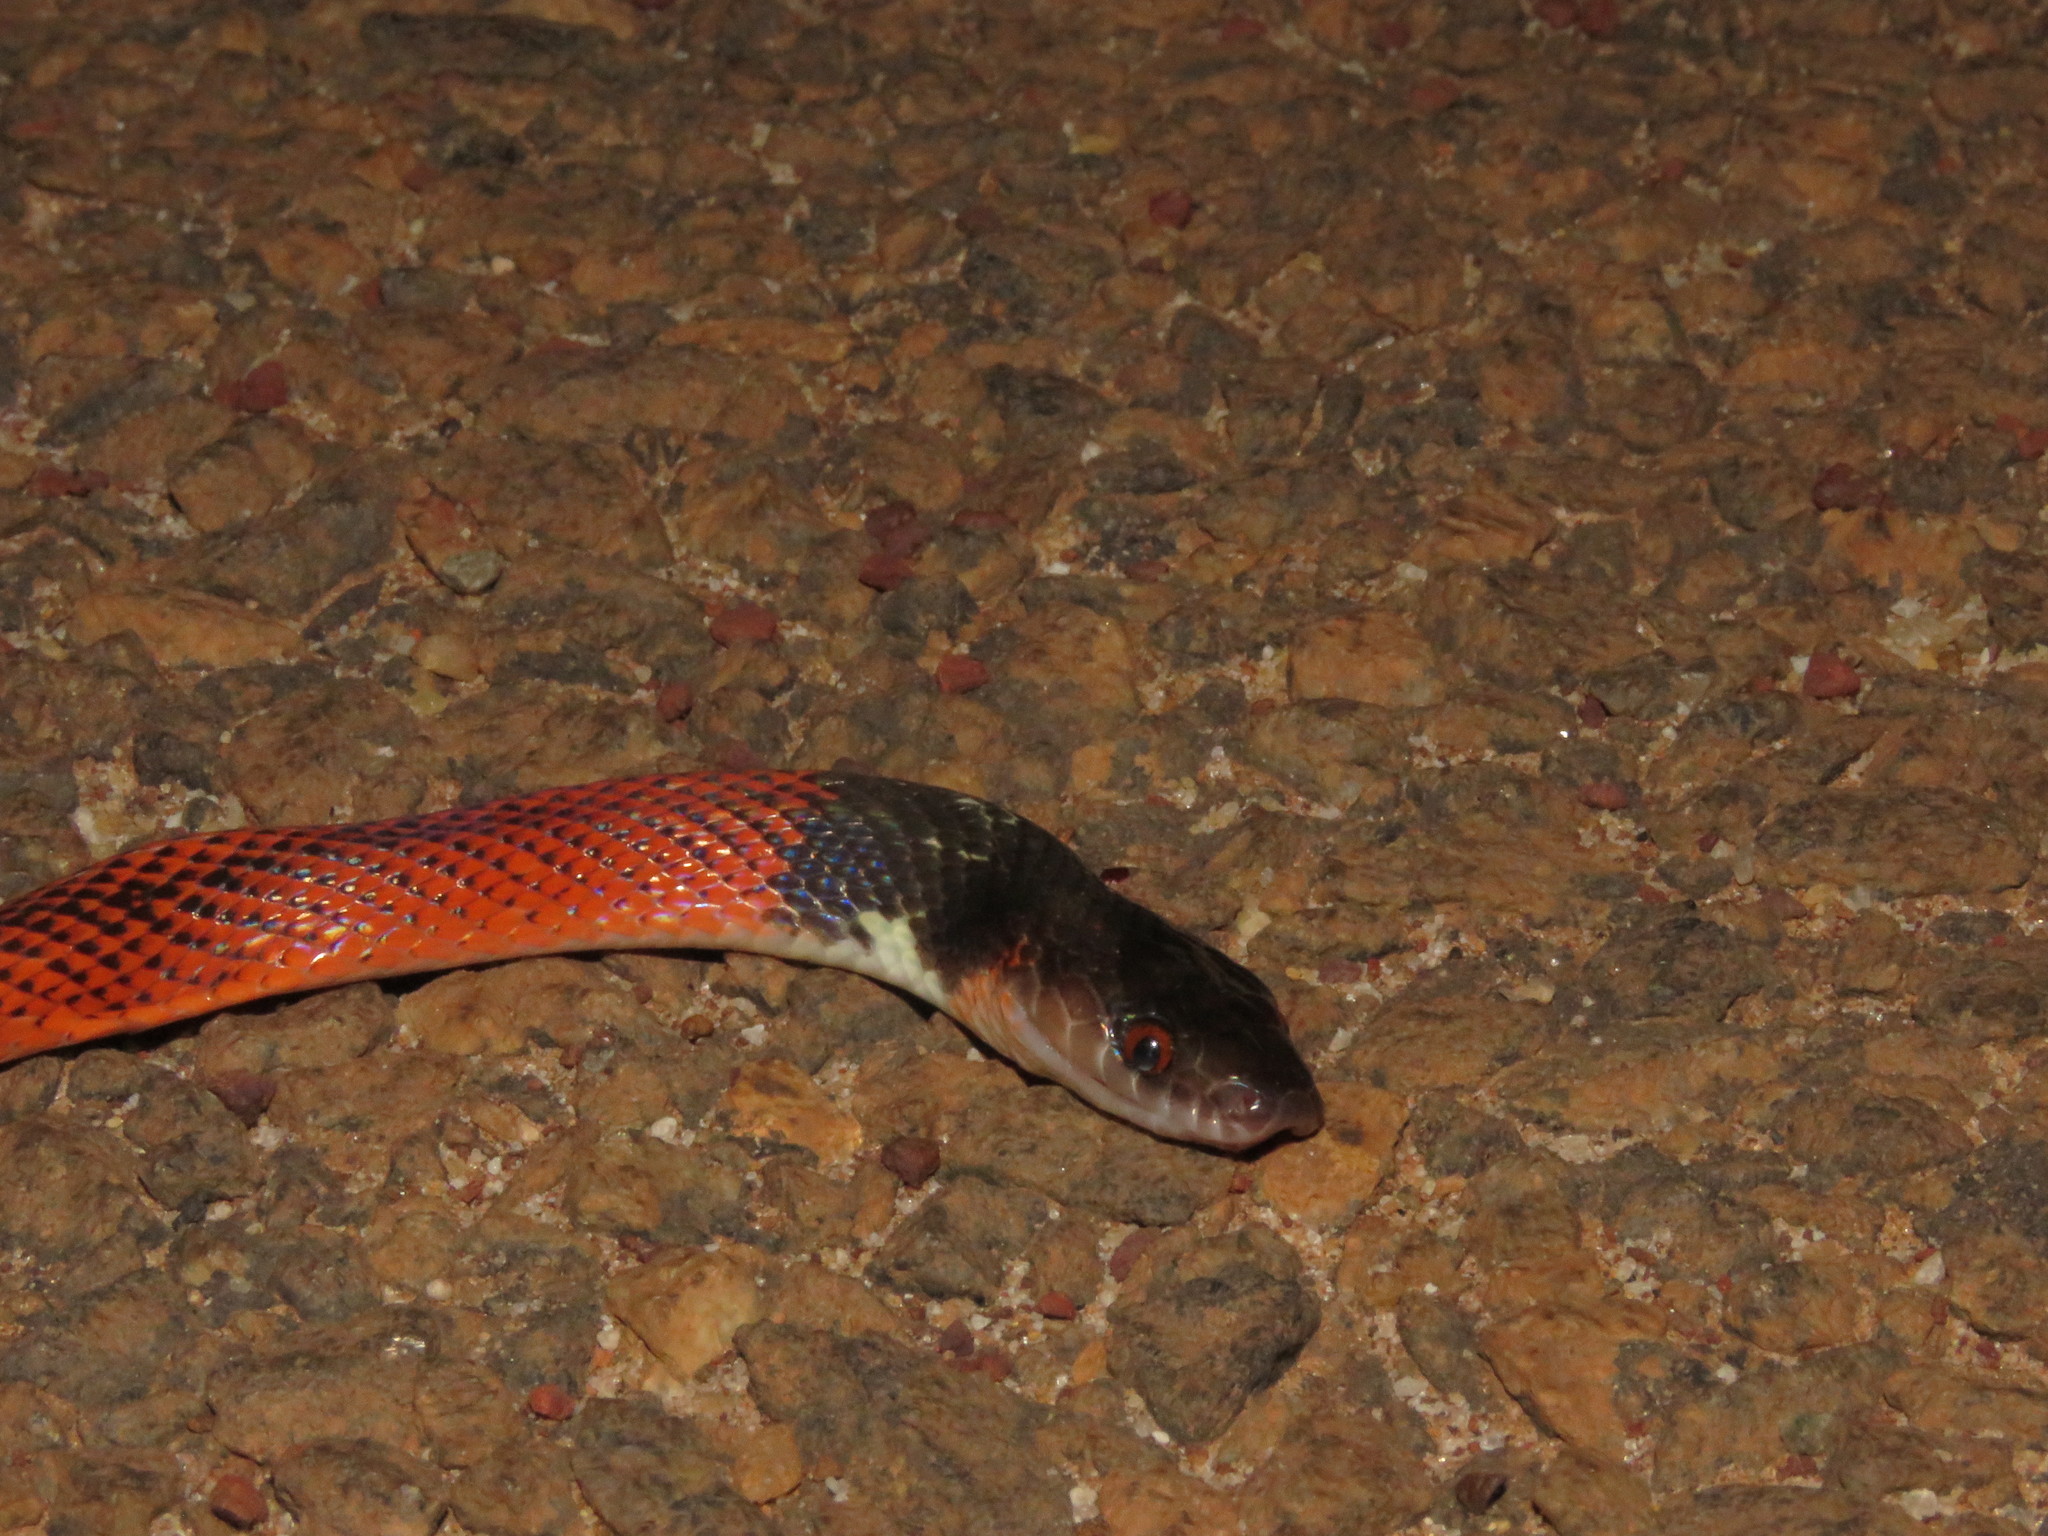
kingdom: Animalia
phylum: Chordata
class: Squamata
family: Colubridae
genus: Oxyrhopus
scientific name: Oxyrhopus melanogenys
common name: Tschudi's false coral snake
